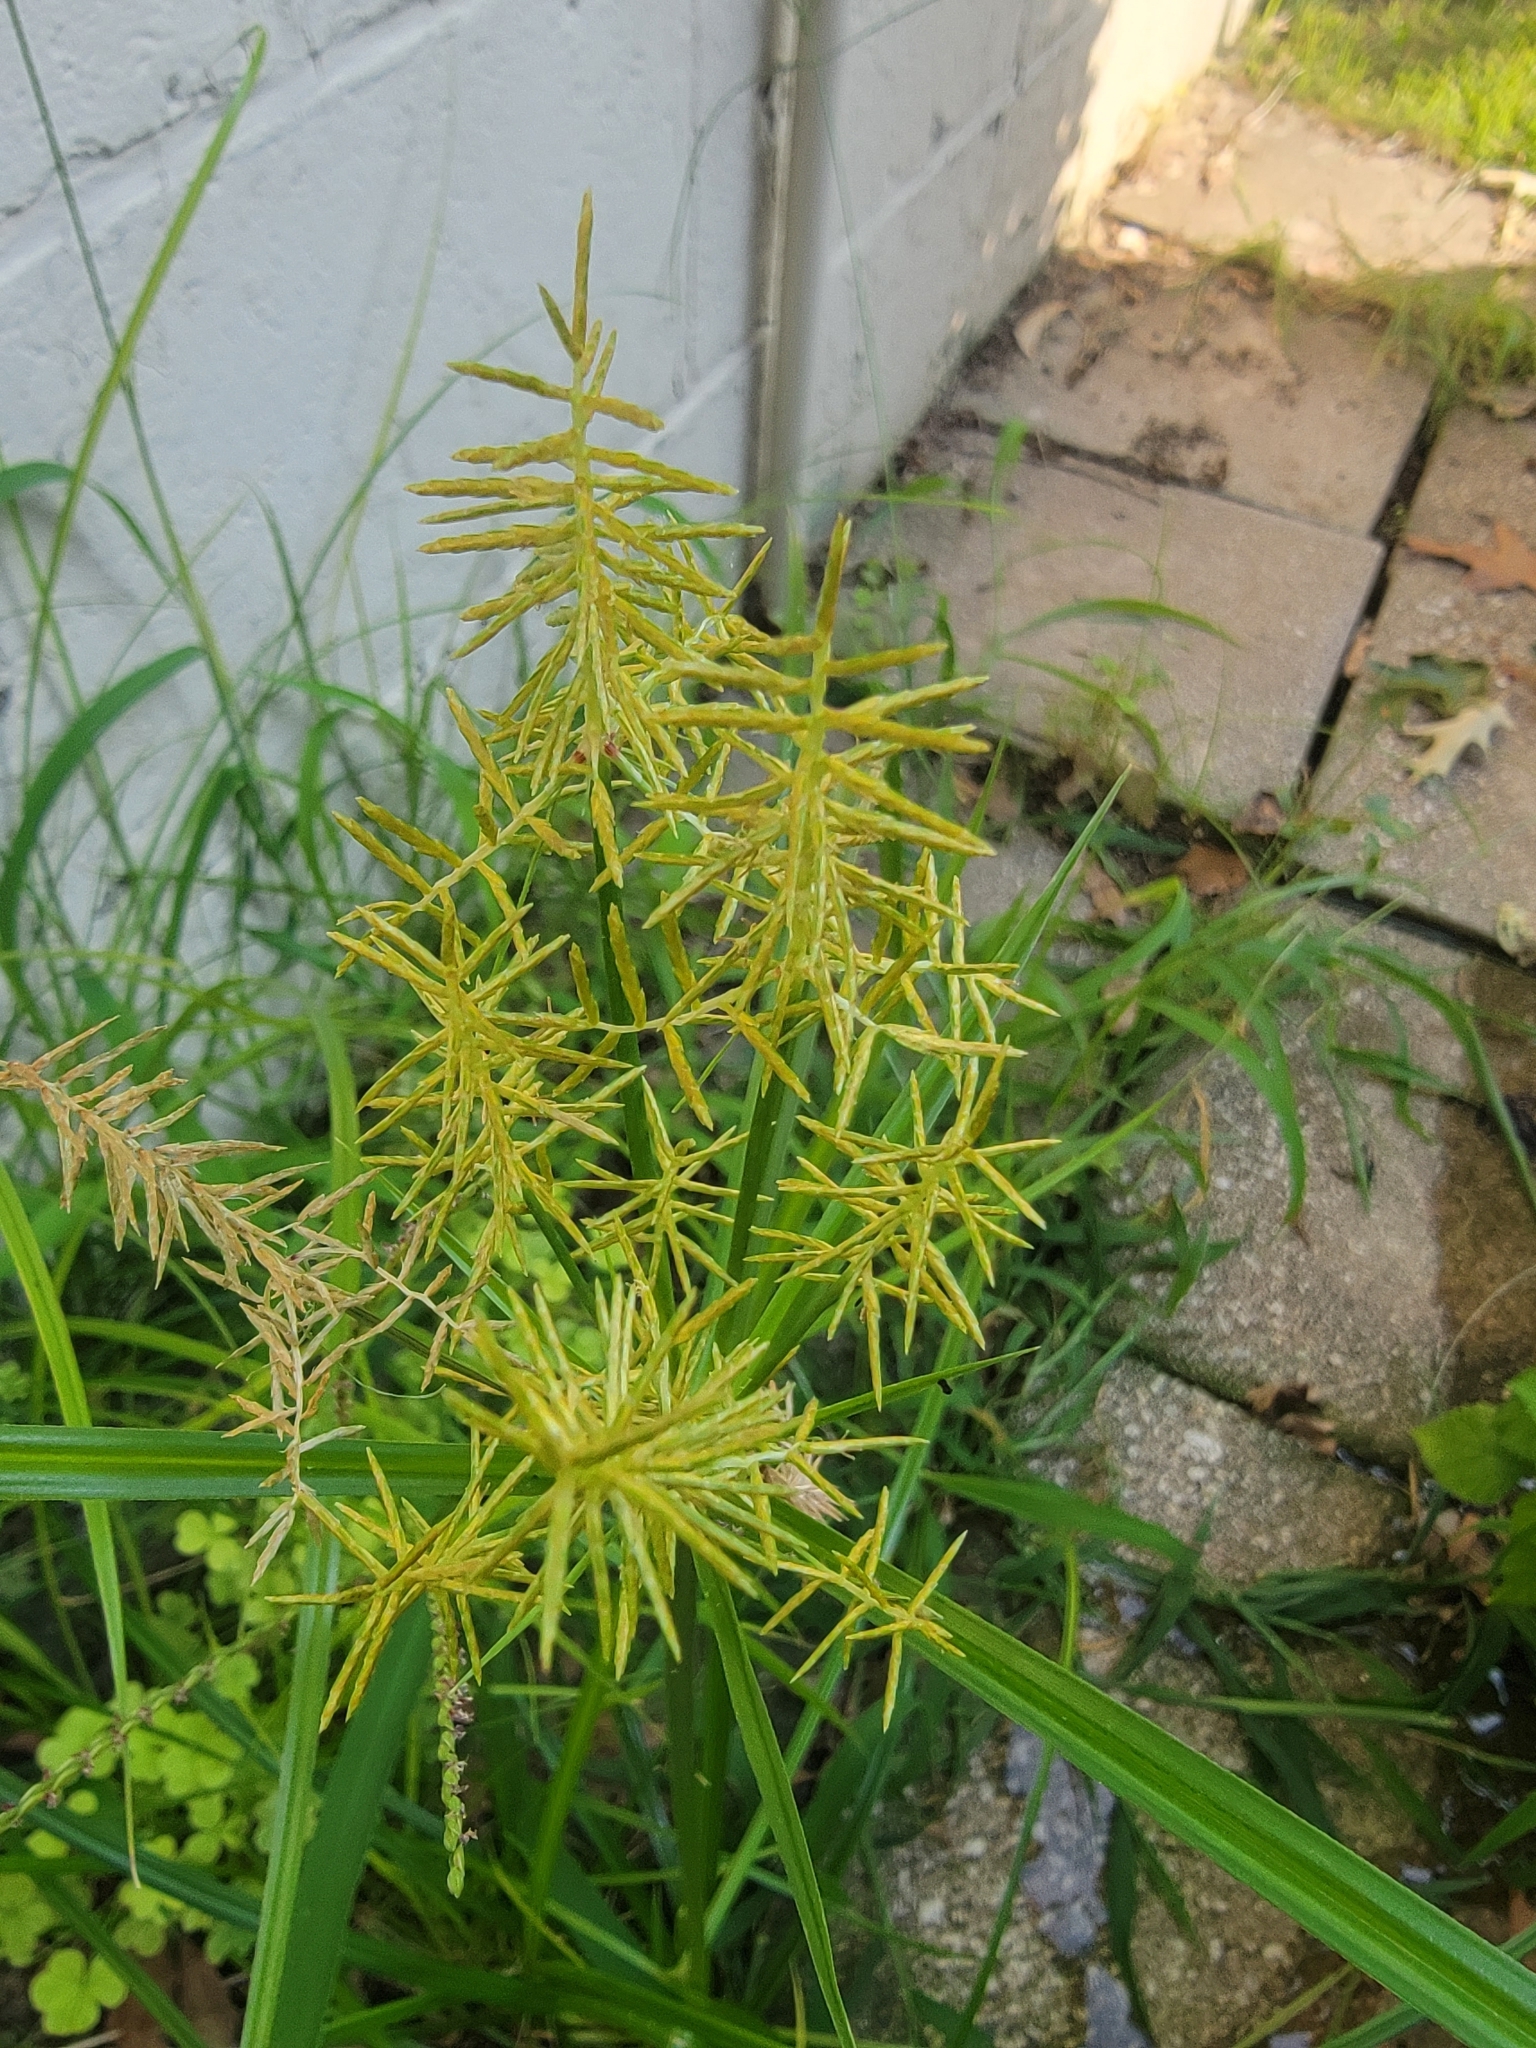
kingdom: Plantae
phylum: Tracheophyta
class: Liliopsida
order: Poales
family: Cyperaceae
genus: Cyperus
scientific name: Cyperus esculentus
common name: Yellow nutsedge
